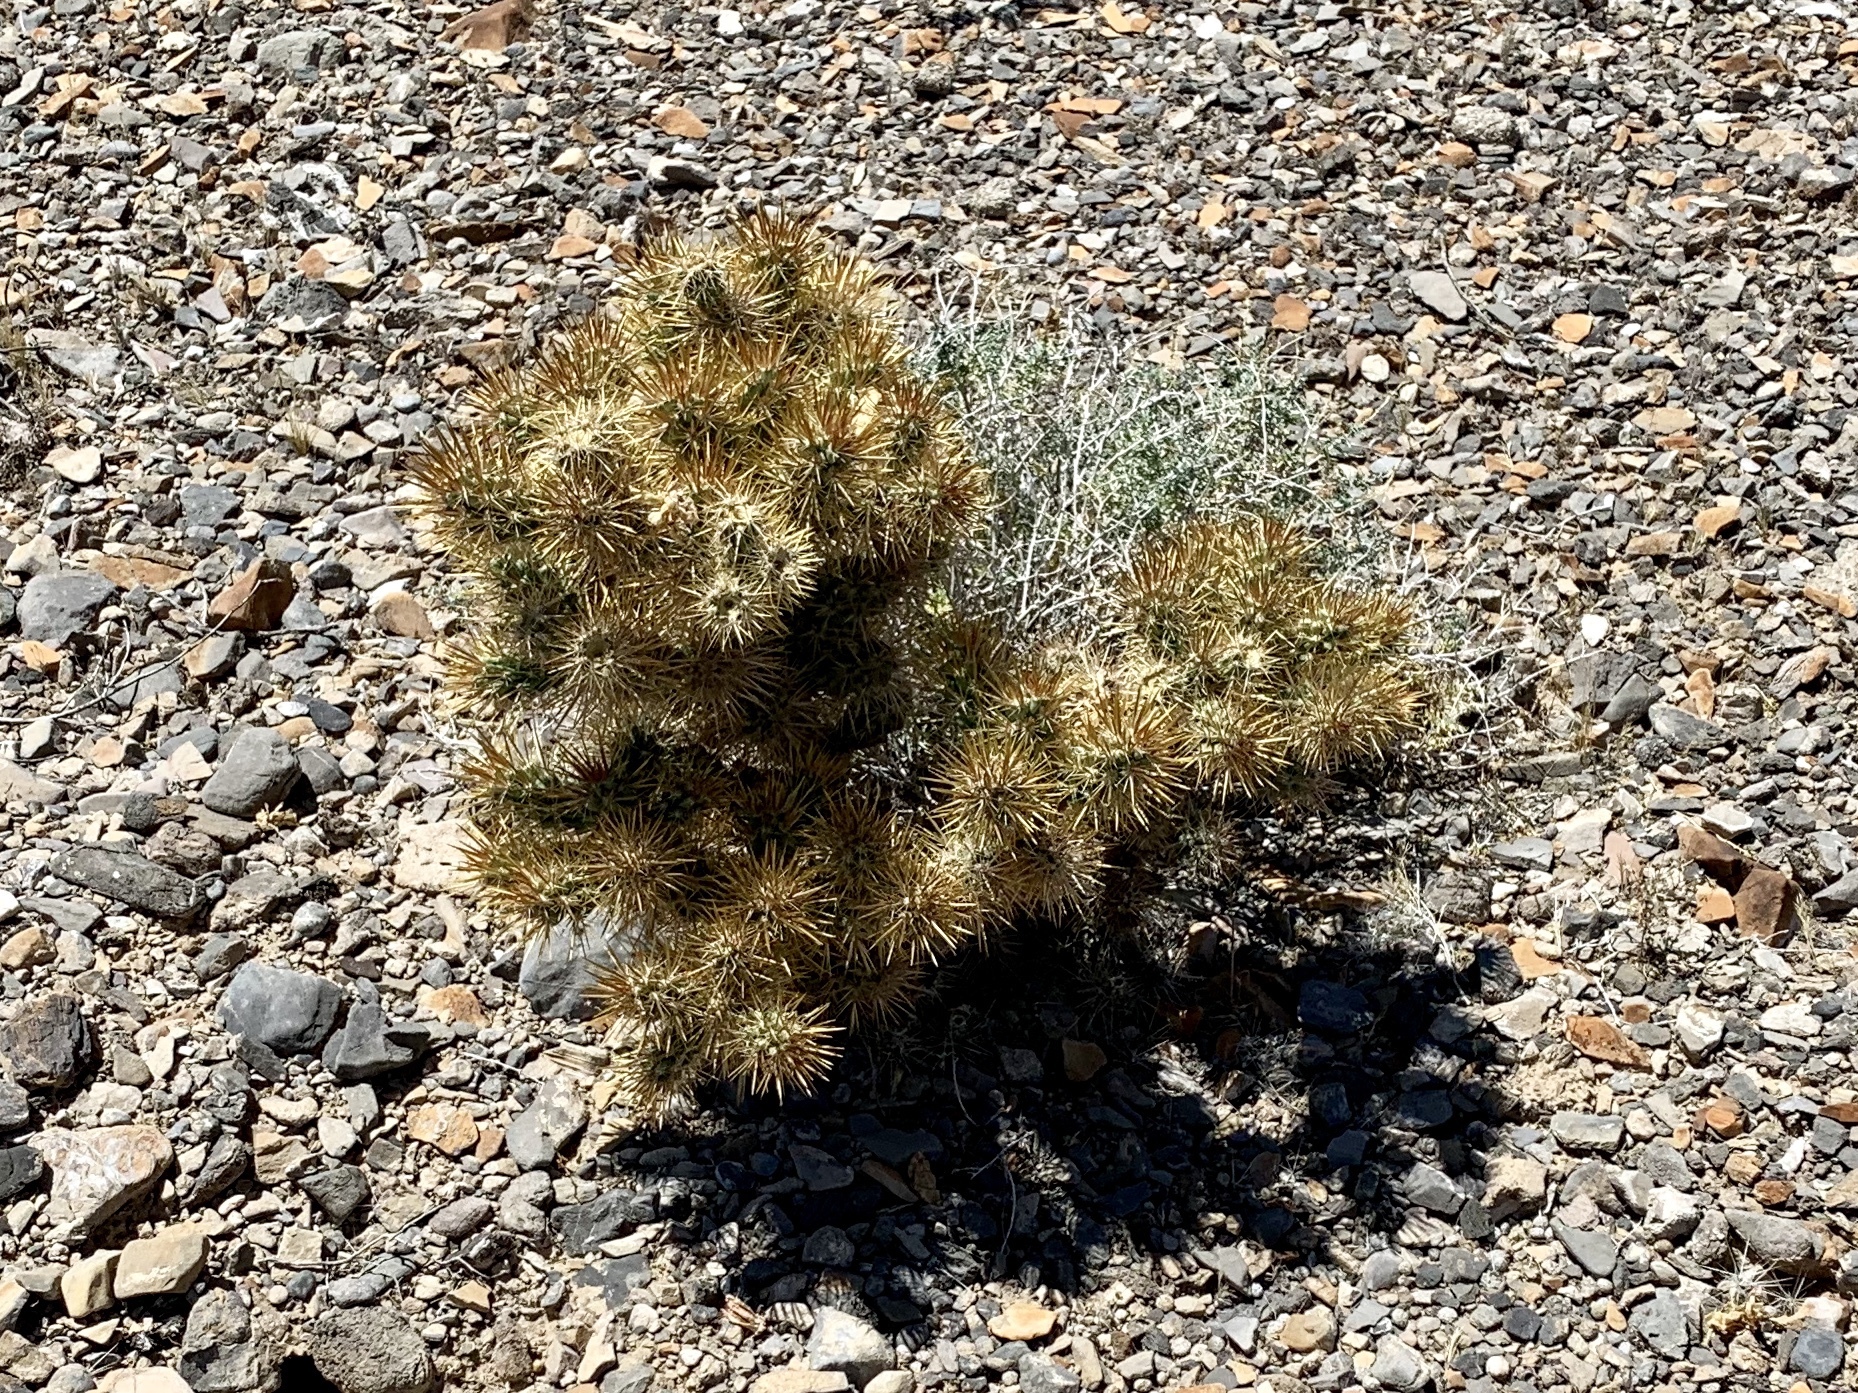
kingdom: Plantae
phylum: Tracheophyta
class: Magnoliopsida
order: Caryophyllales
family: Cactaceae
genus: Cylindropuntia
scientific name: Cylindropuntia echinocarpa
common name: Ground cholla
